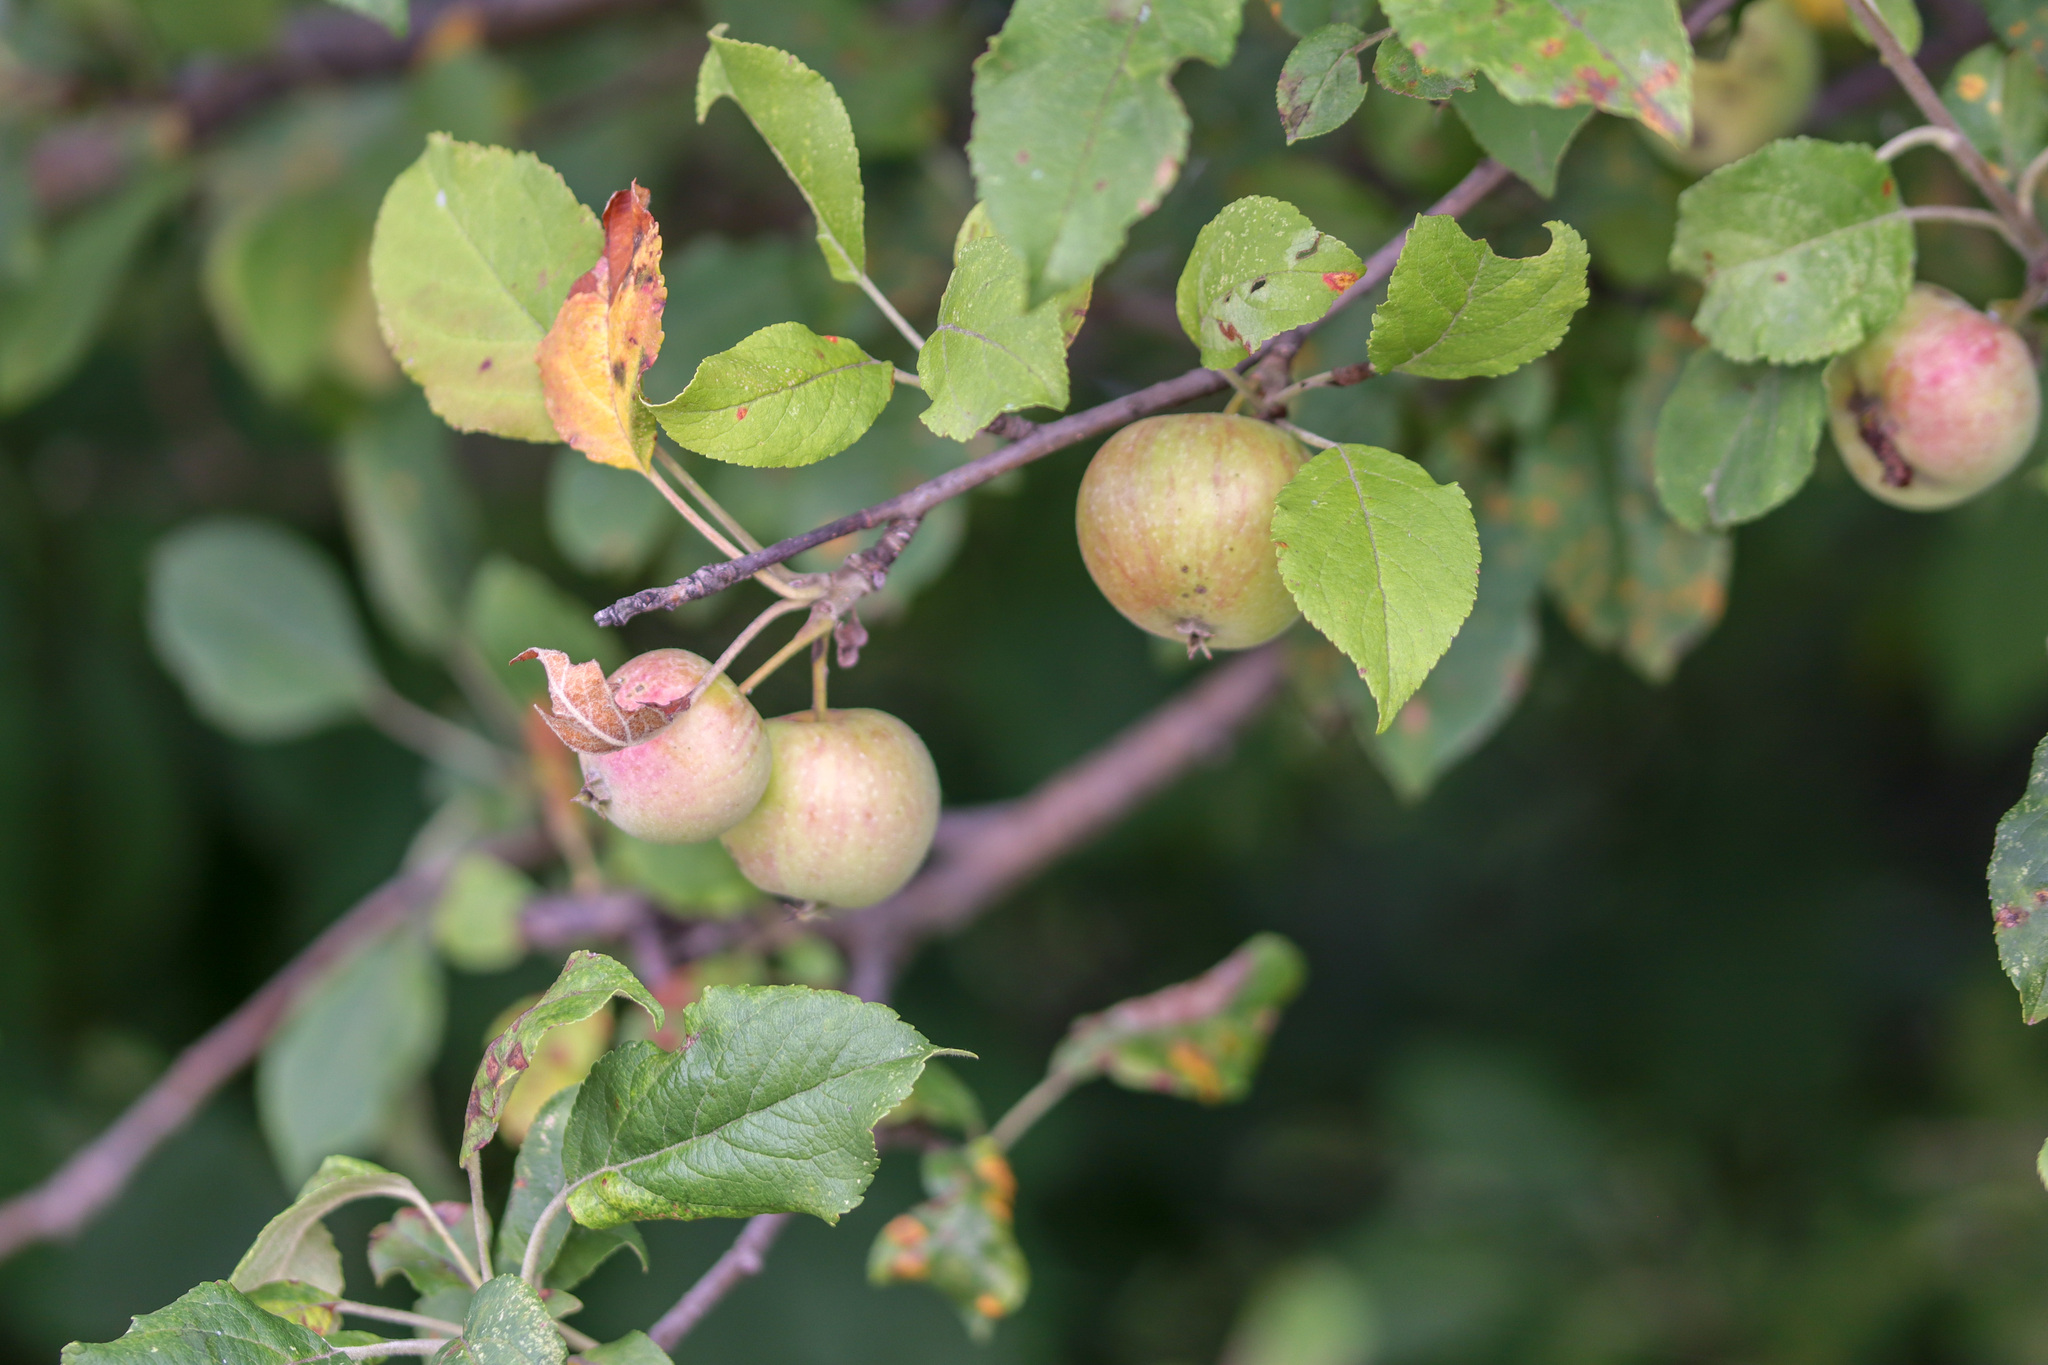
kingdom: Plantae
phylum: Tracheophyta
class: Magnoliopsida
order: Rosales
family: Rosaceae
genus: Malus
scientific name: Malus domestica
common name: Apple
